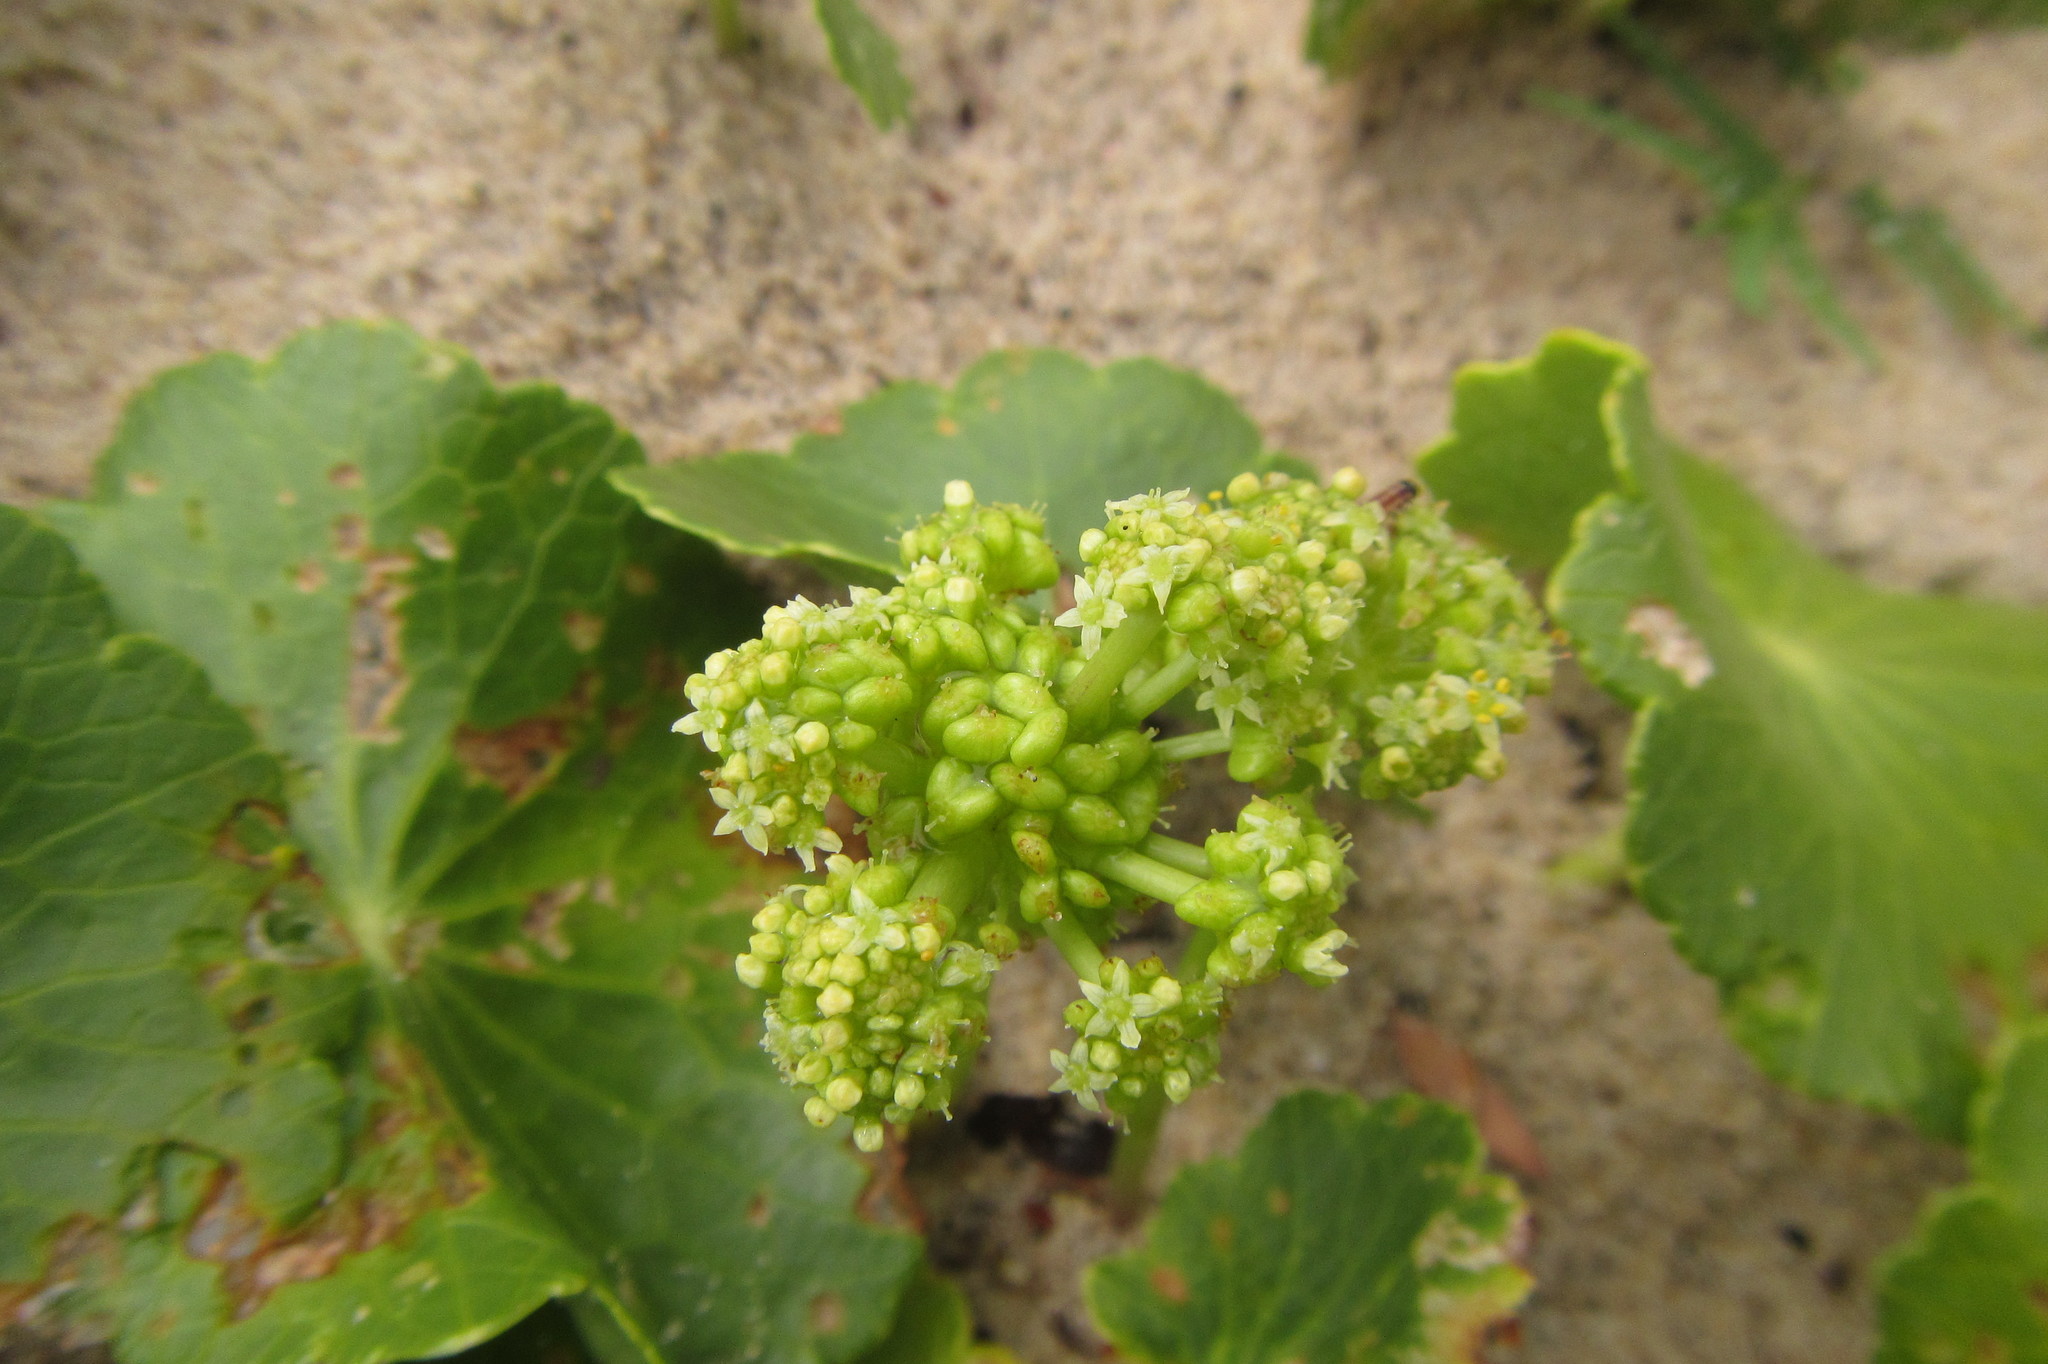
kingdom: Plantae
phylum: Tracheophyta
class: Magnoliopsida
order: Apiales
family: Araliaceae
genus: Hydrocotyle
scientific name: Hydrocotyle bonariensis
